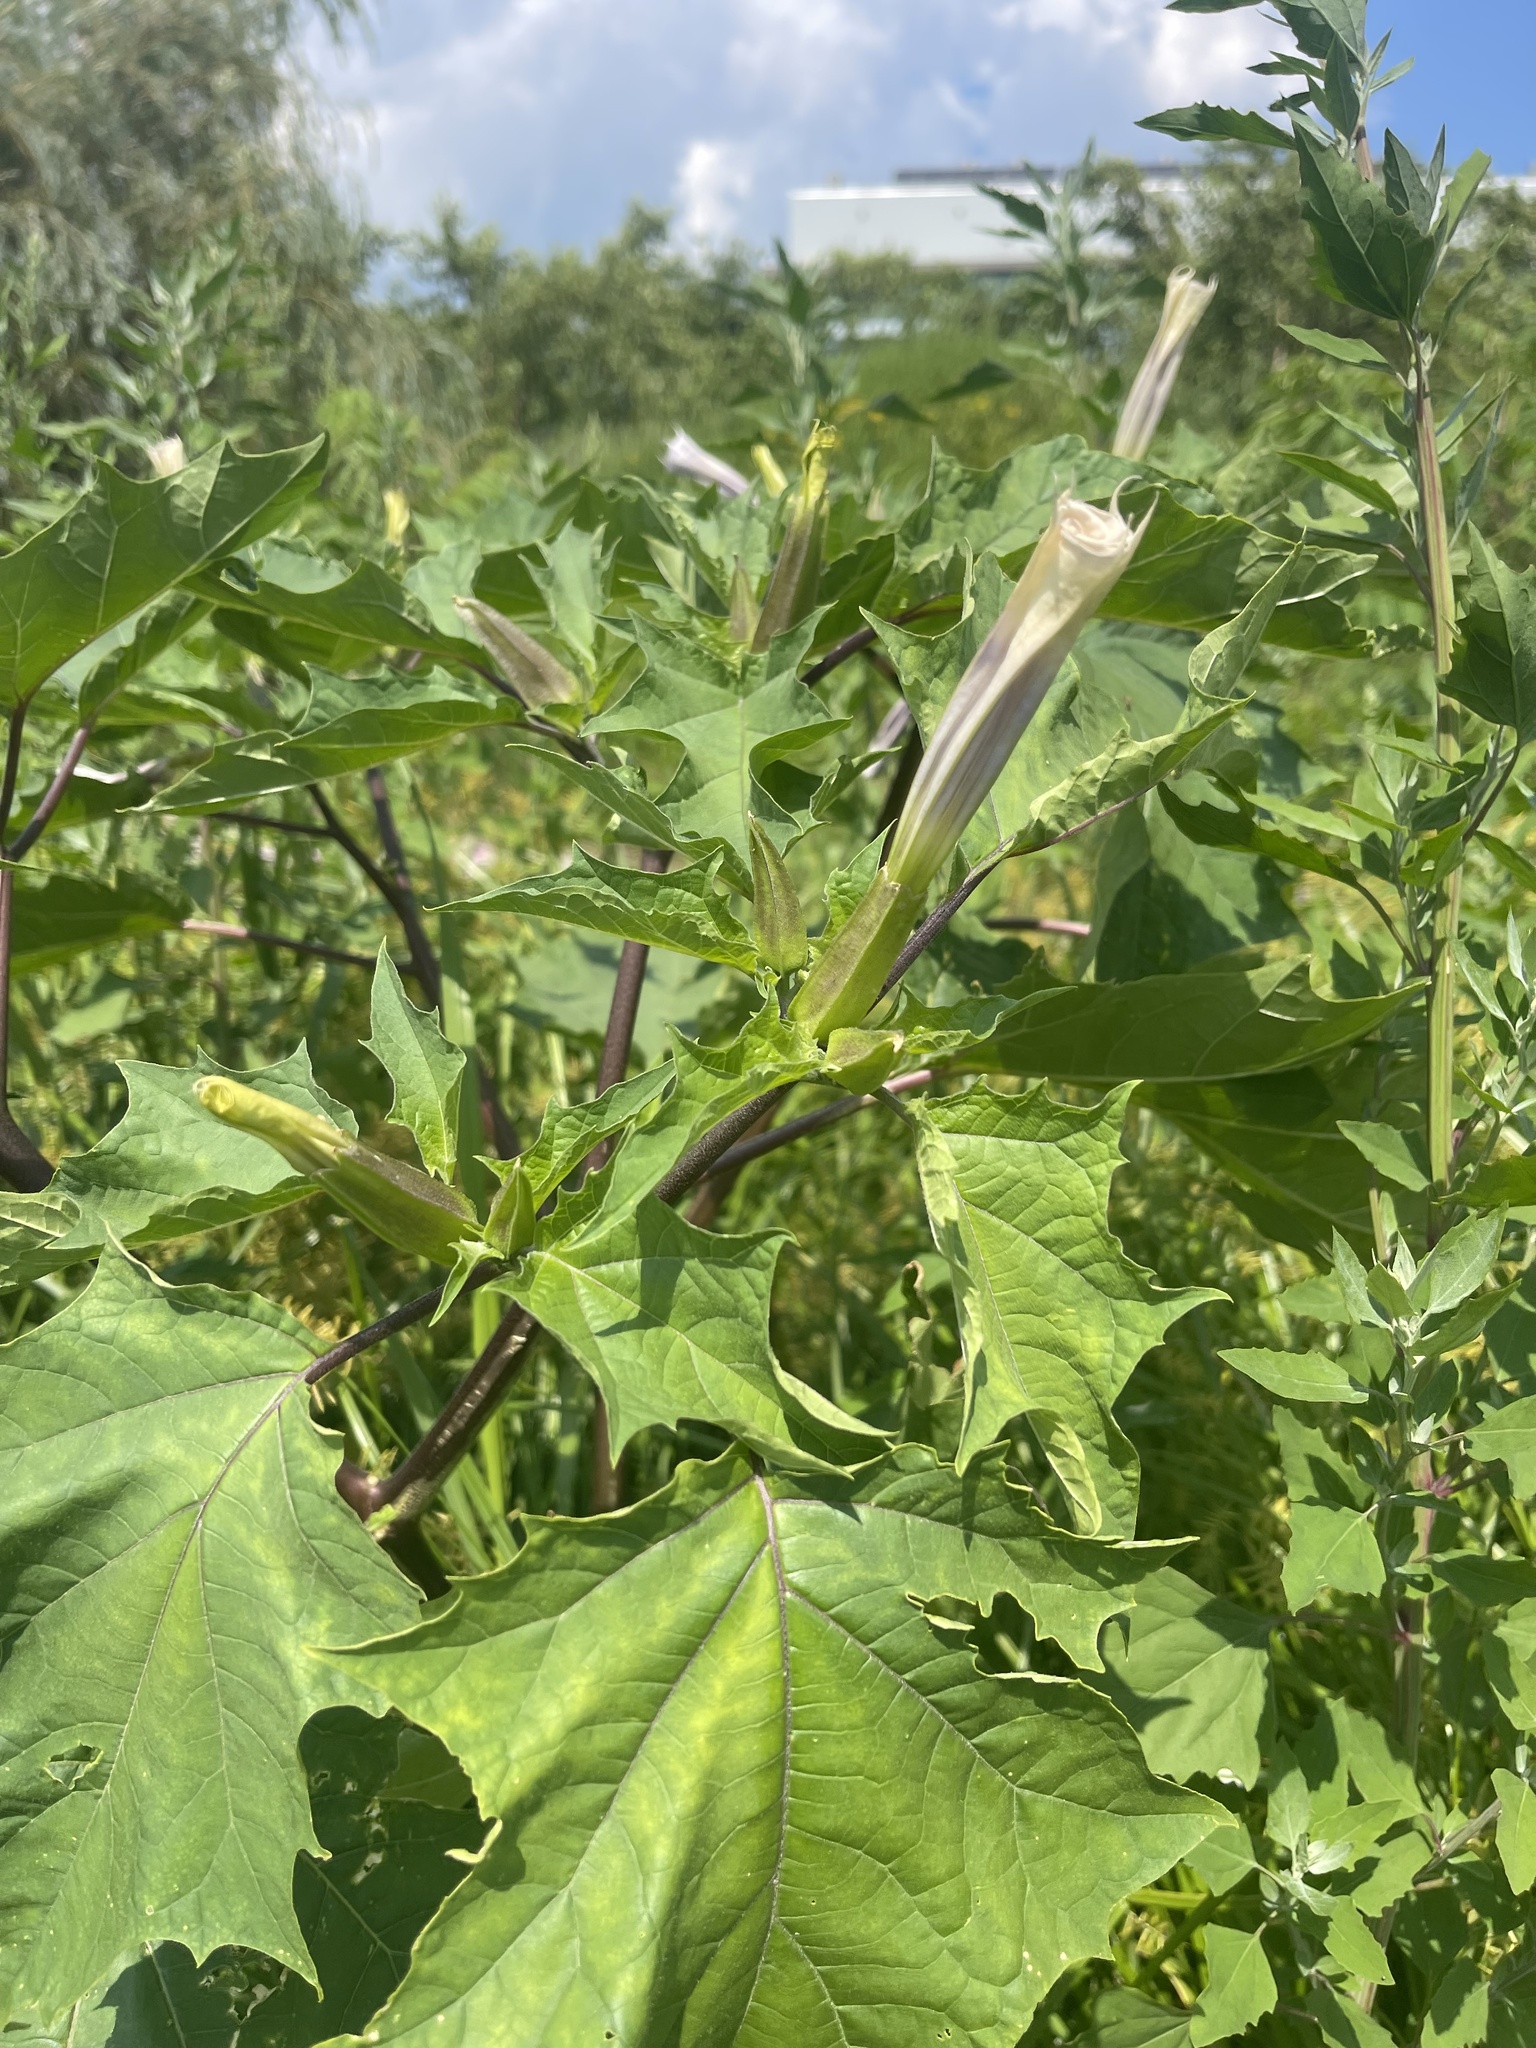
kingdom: Plantae
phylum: Tracheophyta
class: Magnoliopsida
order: Solanales
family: Solanaceae
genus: Datura
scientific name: Datura stramonium
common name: Thorn-apple
